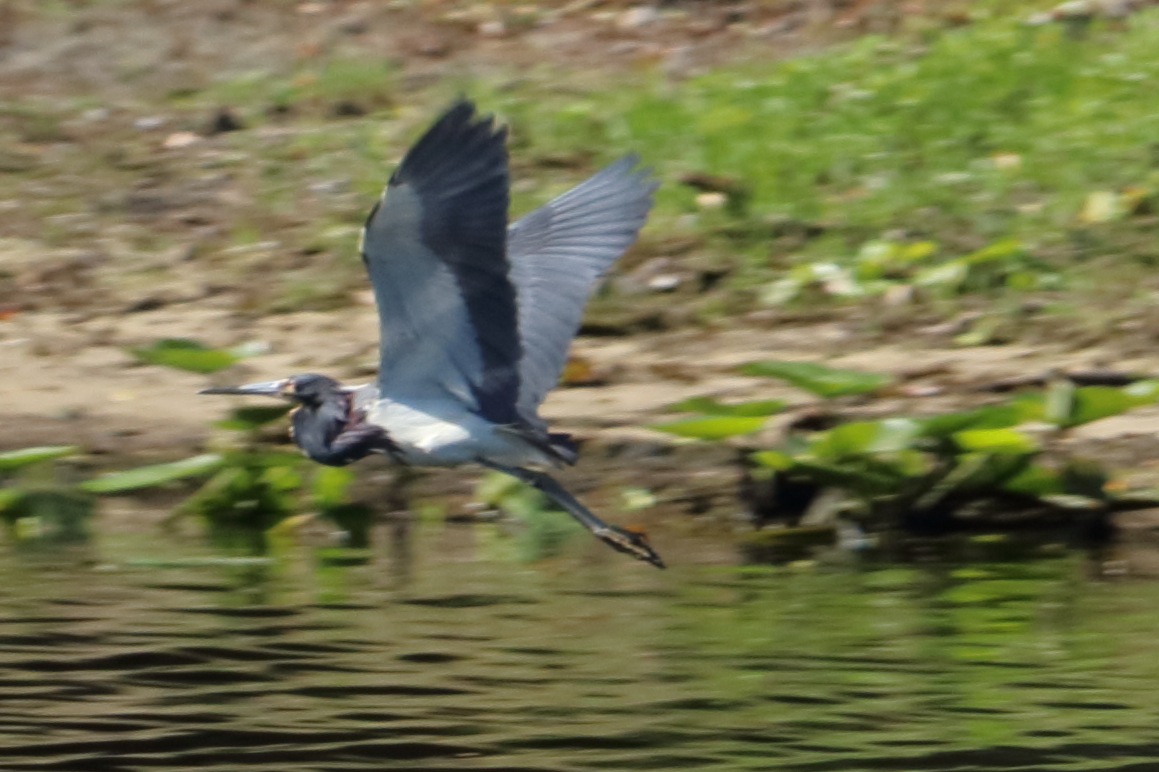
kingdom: Animalia
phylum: Chordata
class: Aves
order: Pelecaniformes
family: Ardeidae
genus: Egretta
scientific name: Egretta tricolor
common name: Tricolored heron
